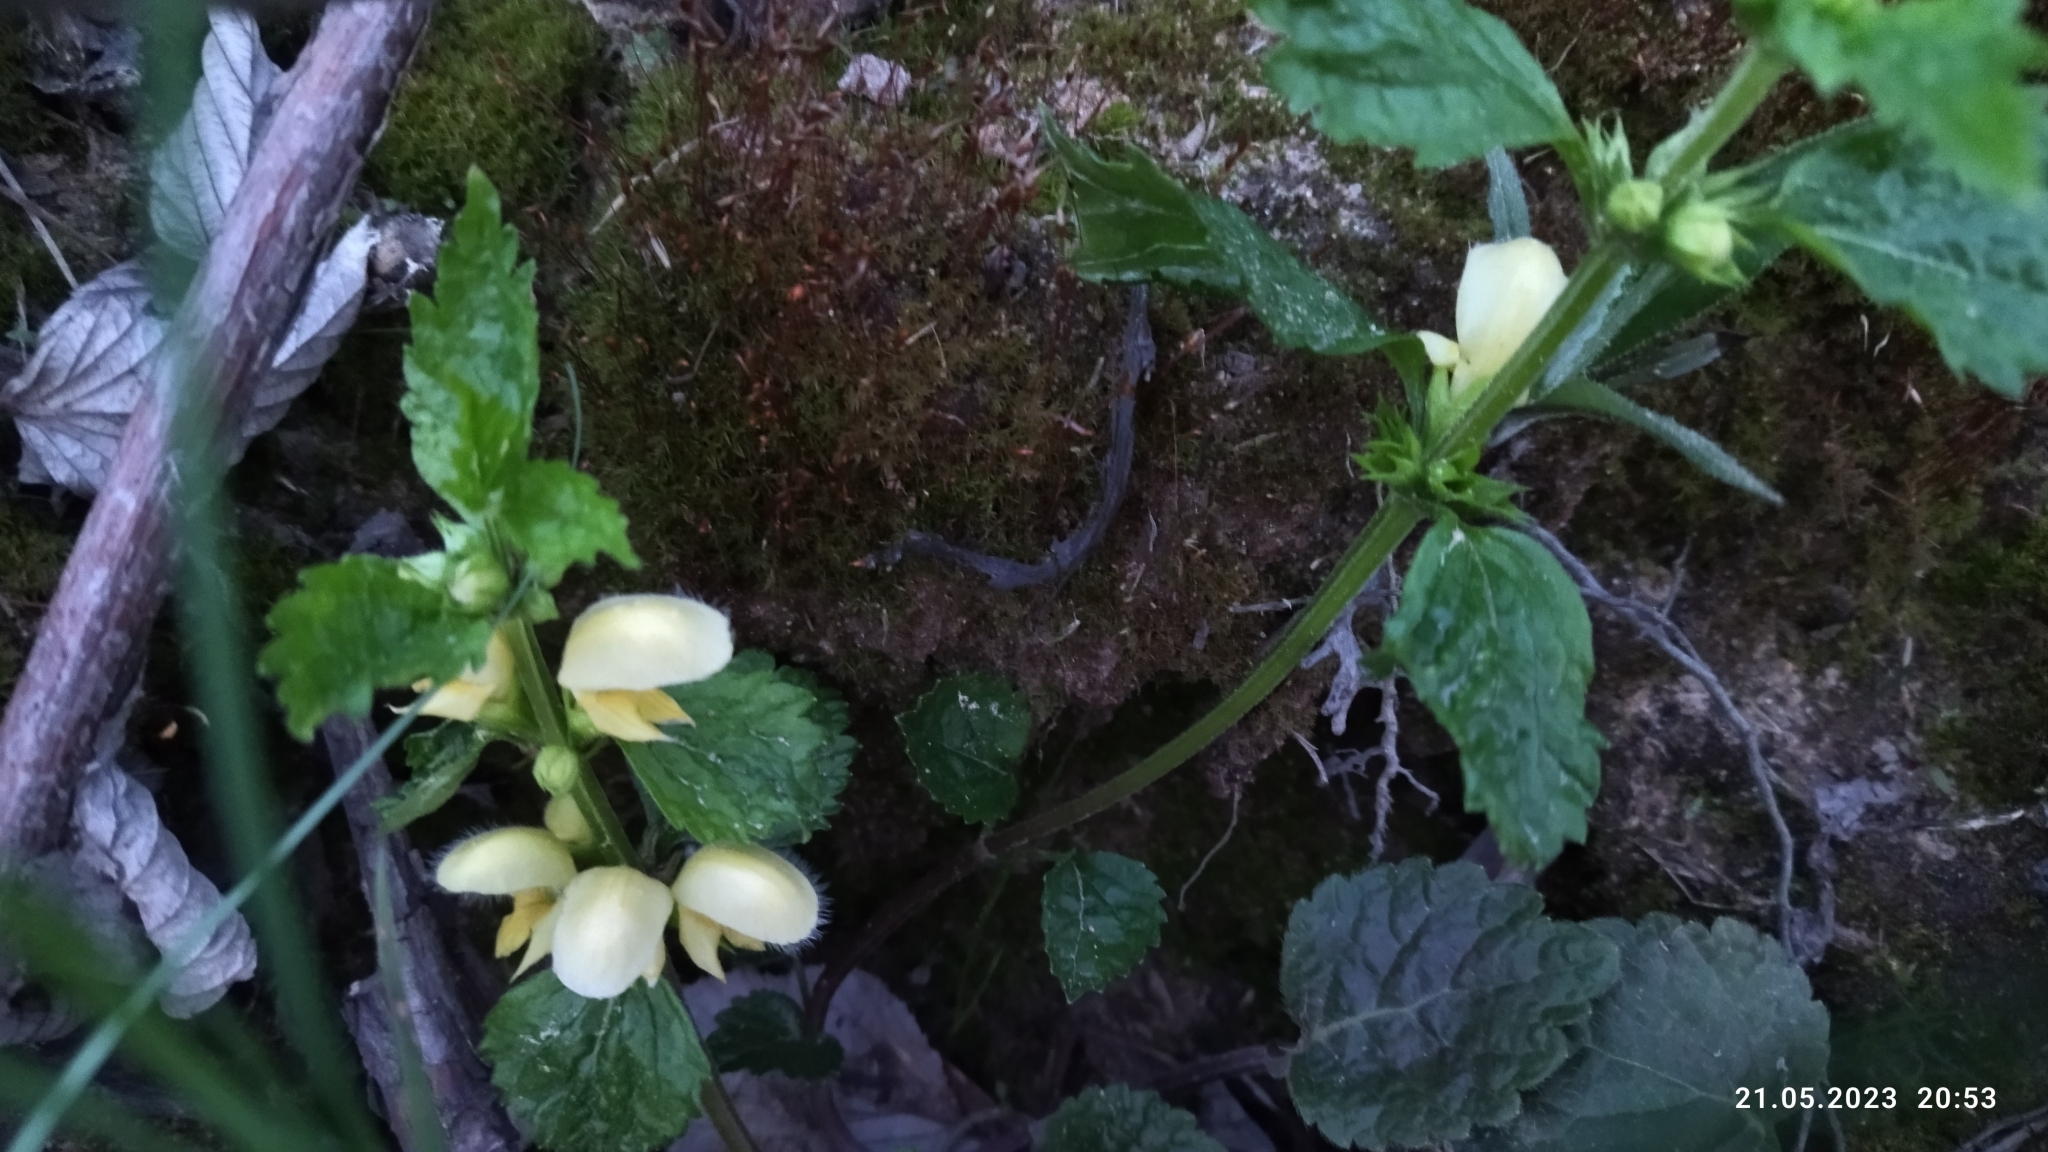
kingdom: Plantae
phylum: Tracheophyta
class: Magnoliopsida
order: Lamiales
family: Lamiaceae
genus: Lamium
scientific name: Lamium galeobdolon
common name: Yellow archangel
